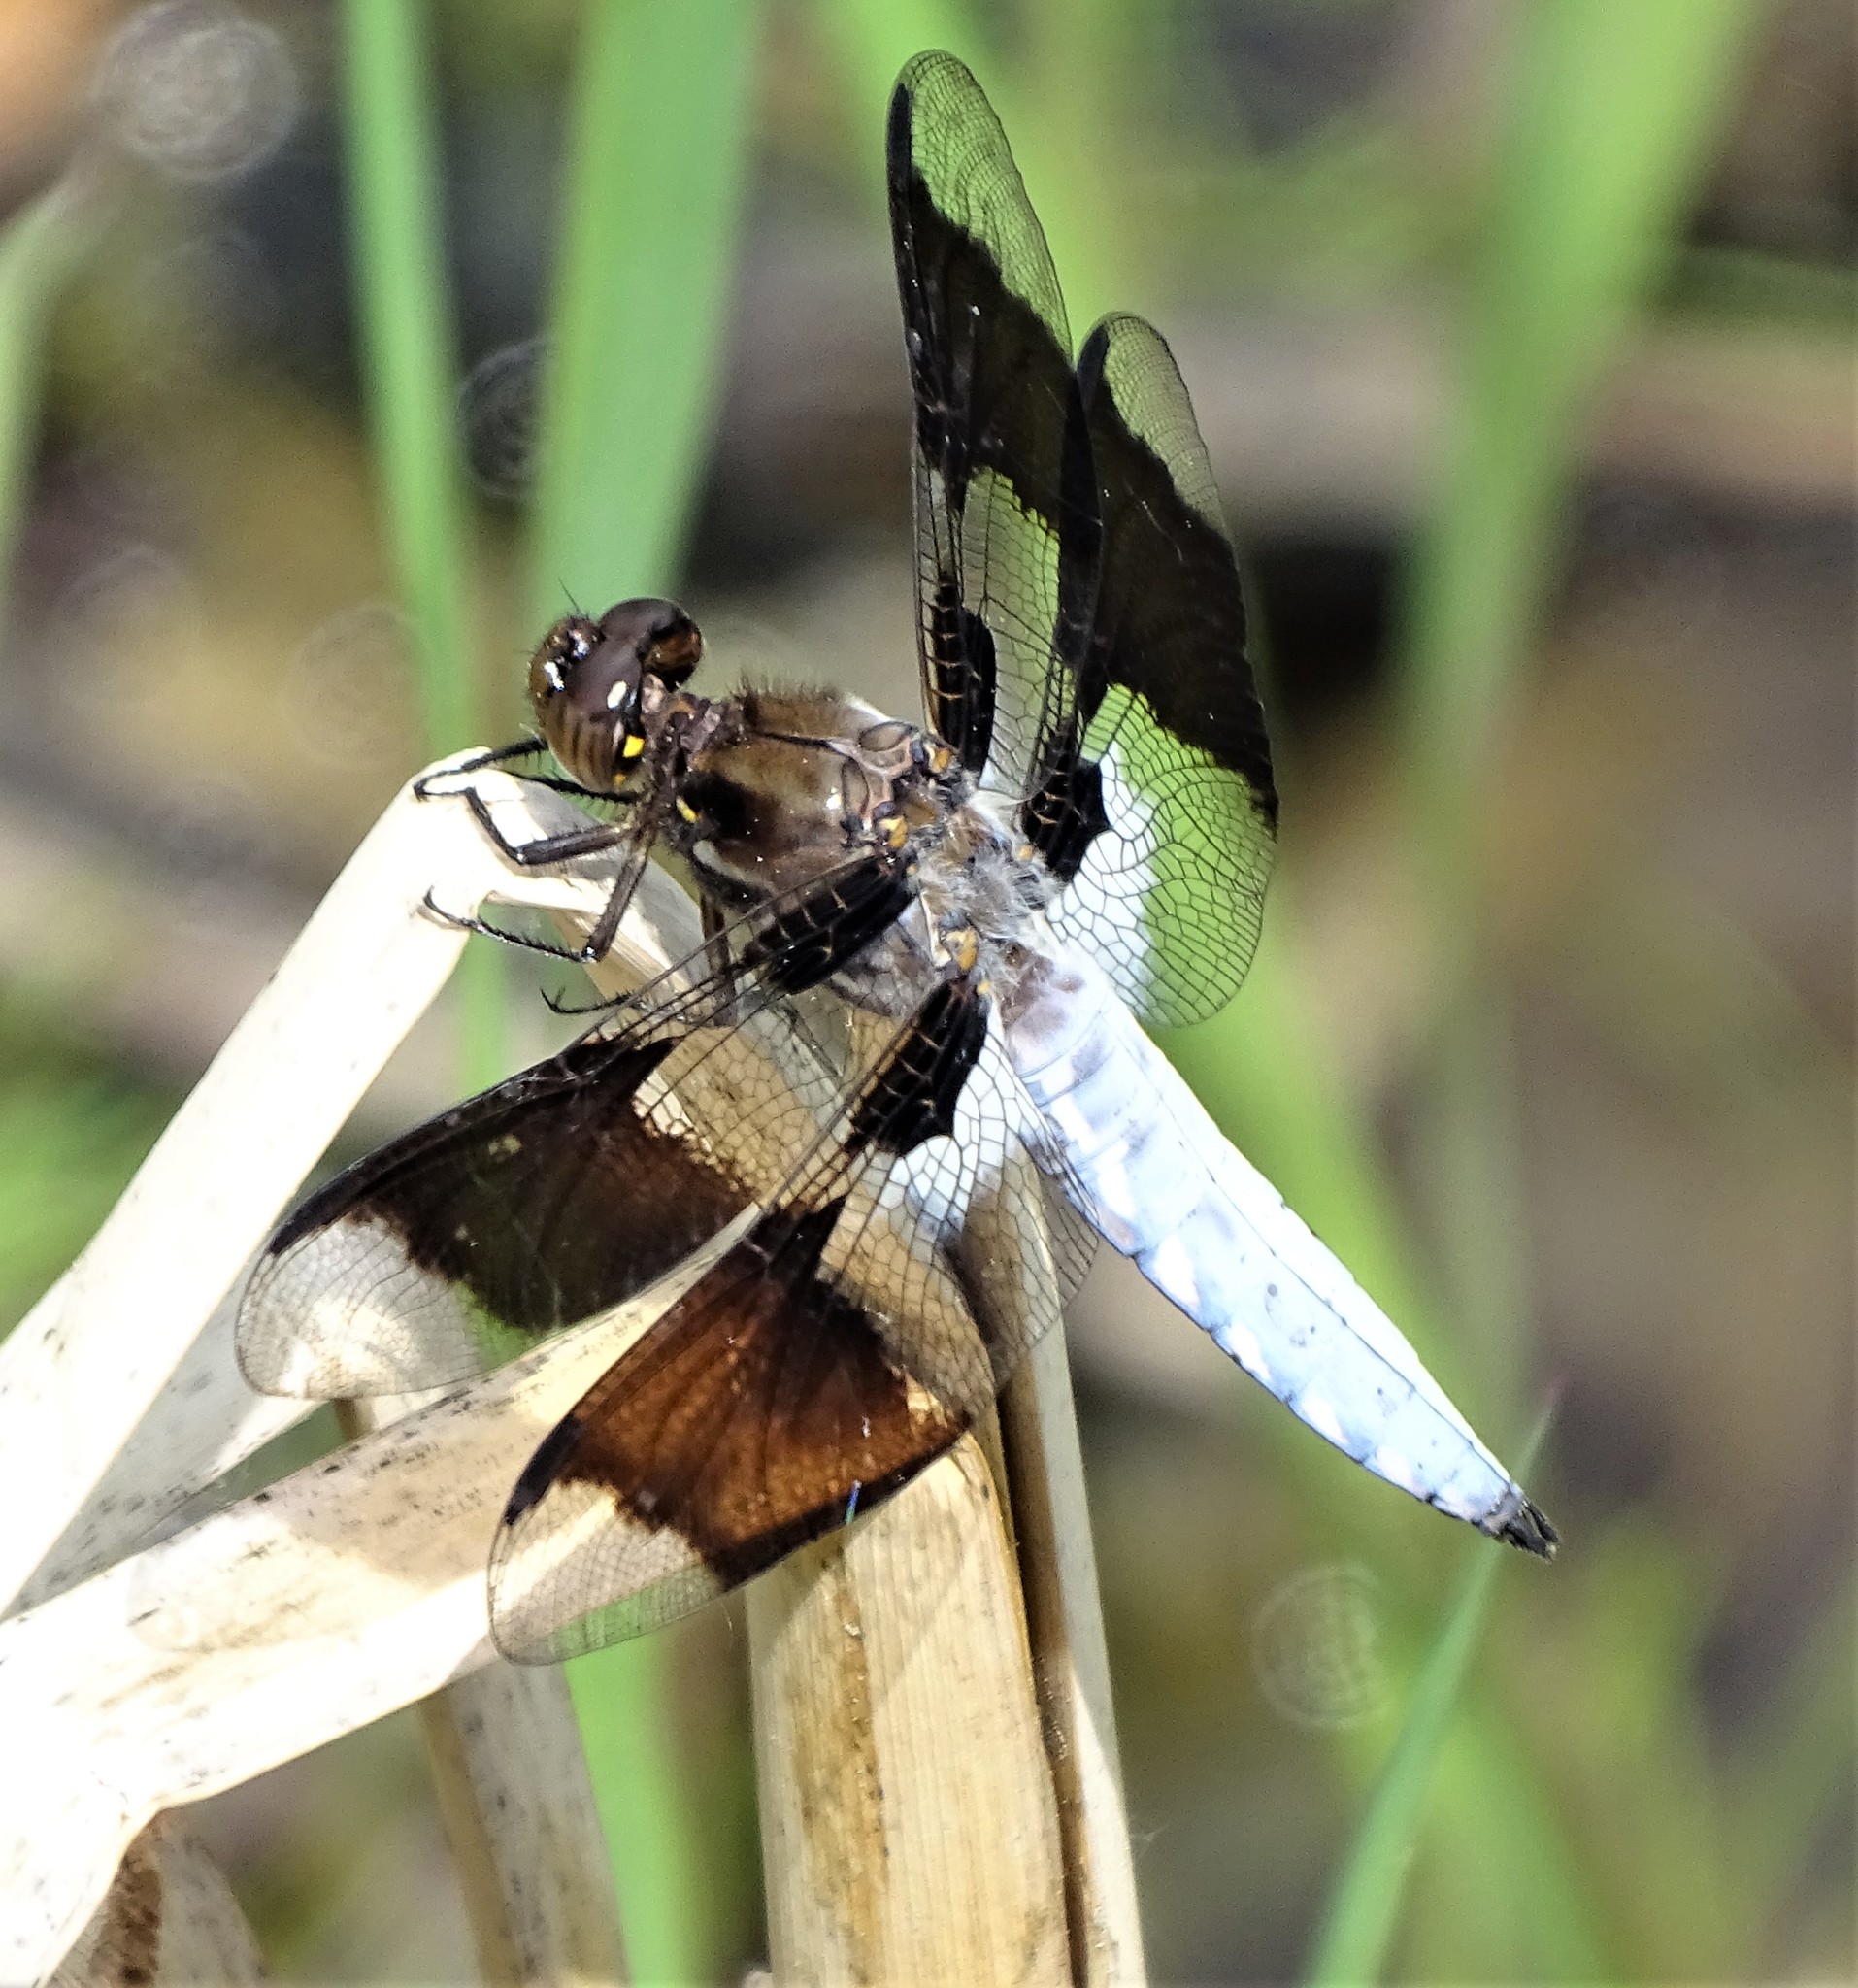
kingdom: Animalia
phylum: Arthropoda
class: Insecta
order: Odonata
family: Libellulidae
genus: Plathemis
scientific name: Plathemis lydia
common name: Common whitetail
